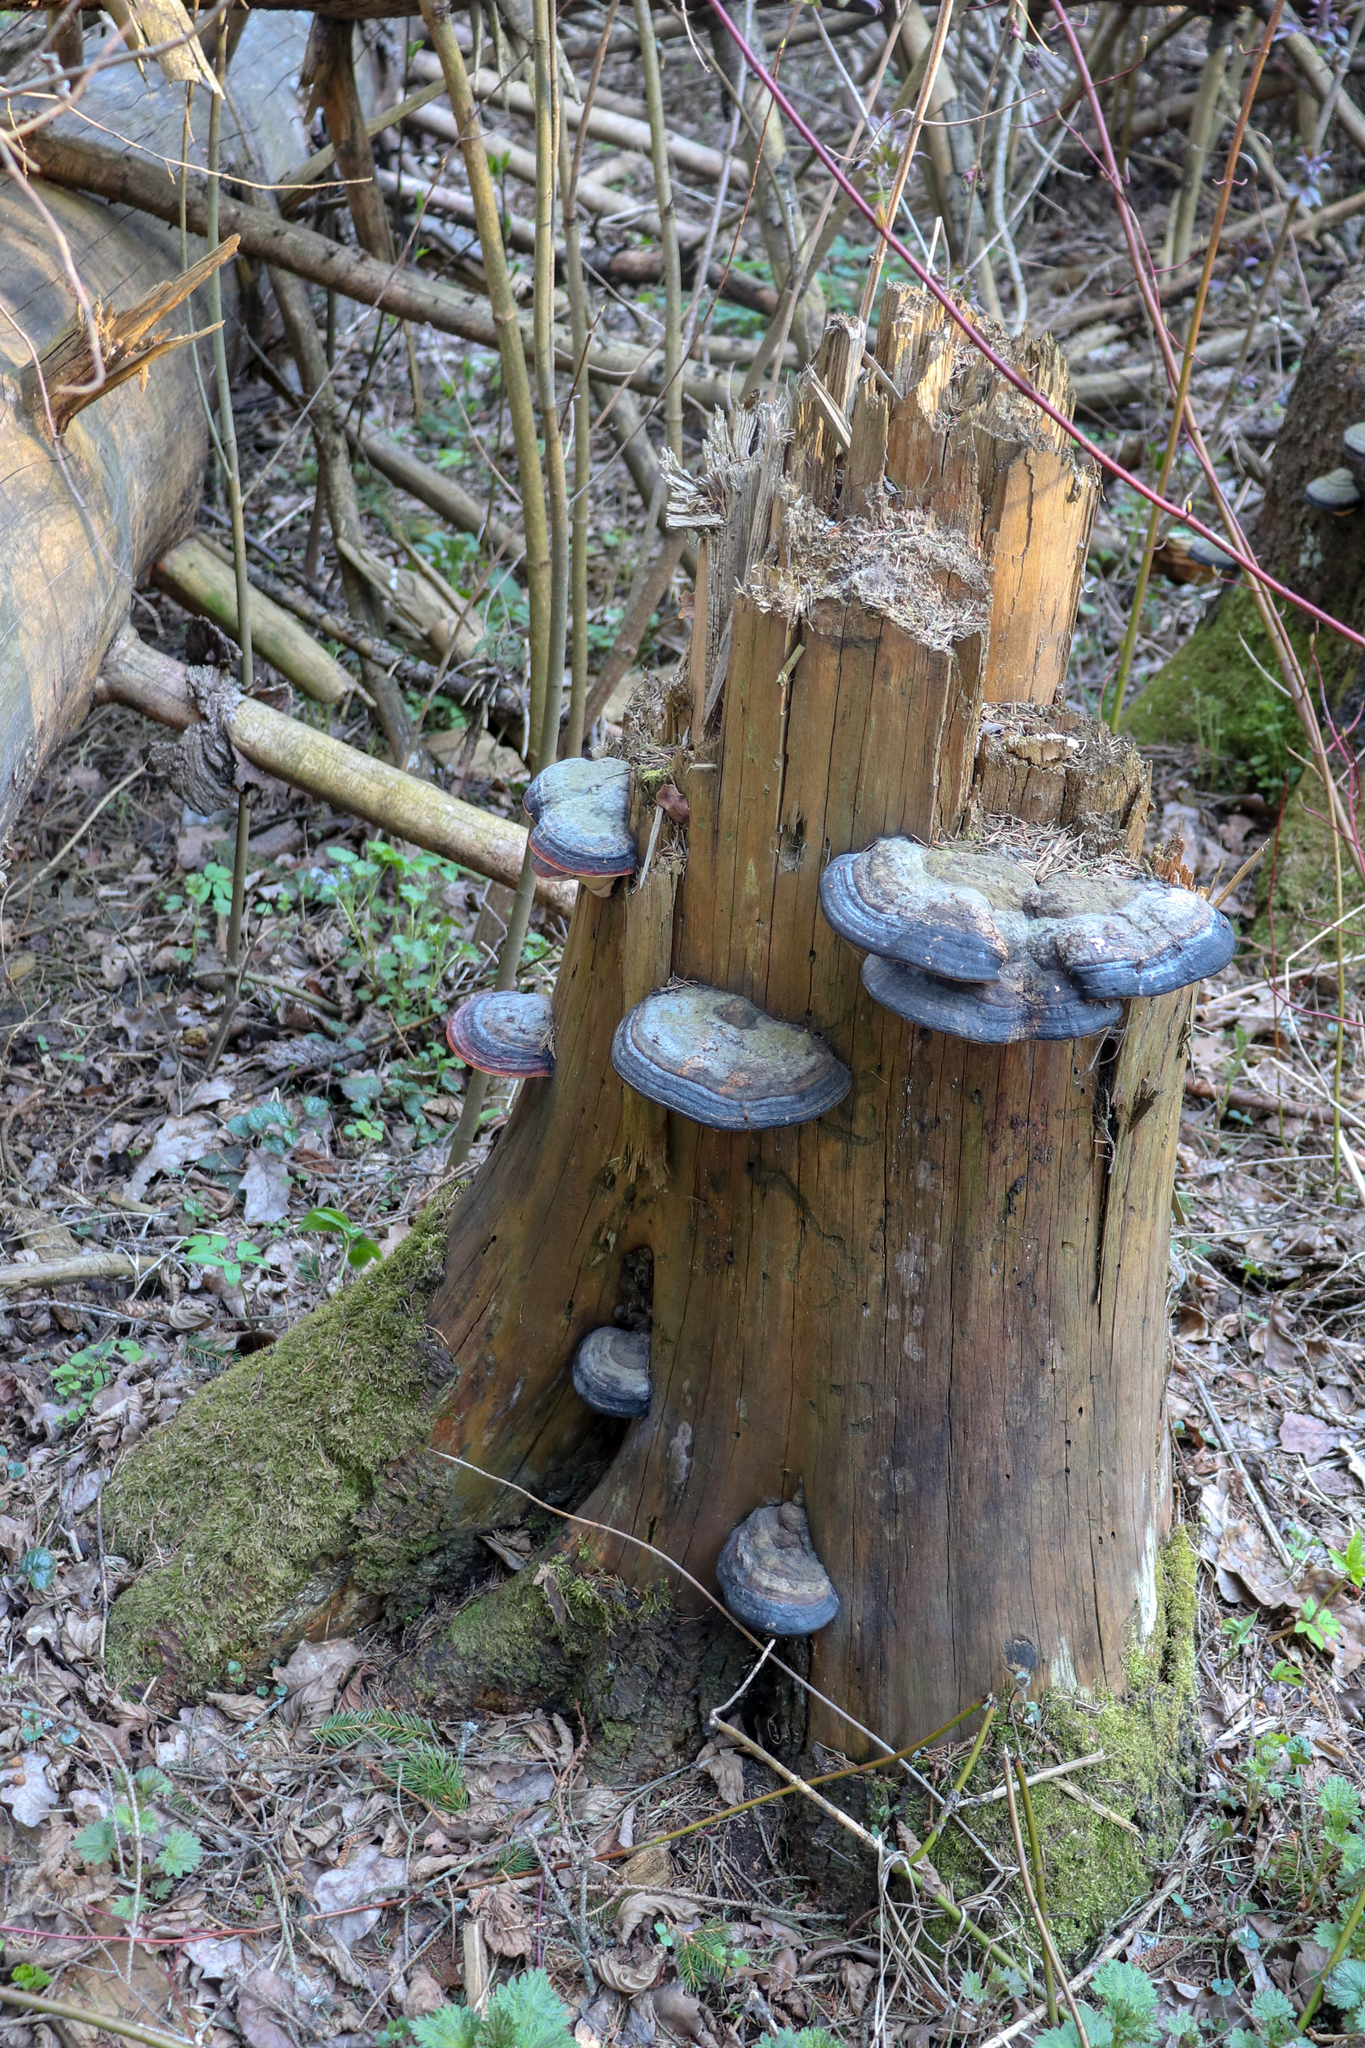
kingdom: Fungi
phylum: Basidiomycota
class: Agaricomycetes
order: Polyporales
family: Fomitopsidaceae
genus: Fomitopsis
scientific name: Fomitopsis pinicola
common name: Red-belted bracket
